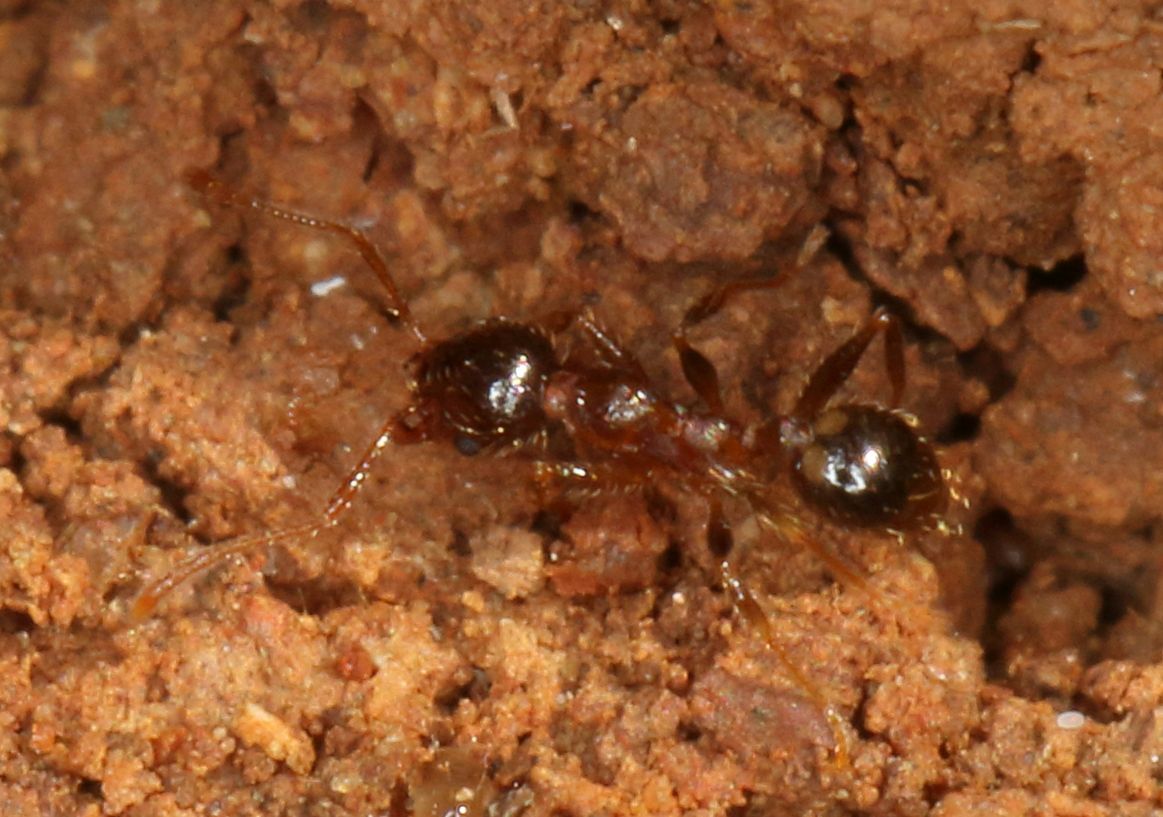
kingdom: Animalia
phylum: Arthropoda
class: Insecta
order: Hymenoptera
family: Formicidae
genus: Pheidole
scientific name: Pheidole megacephala
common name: Bigheaded ant
